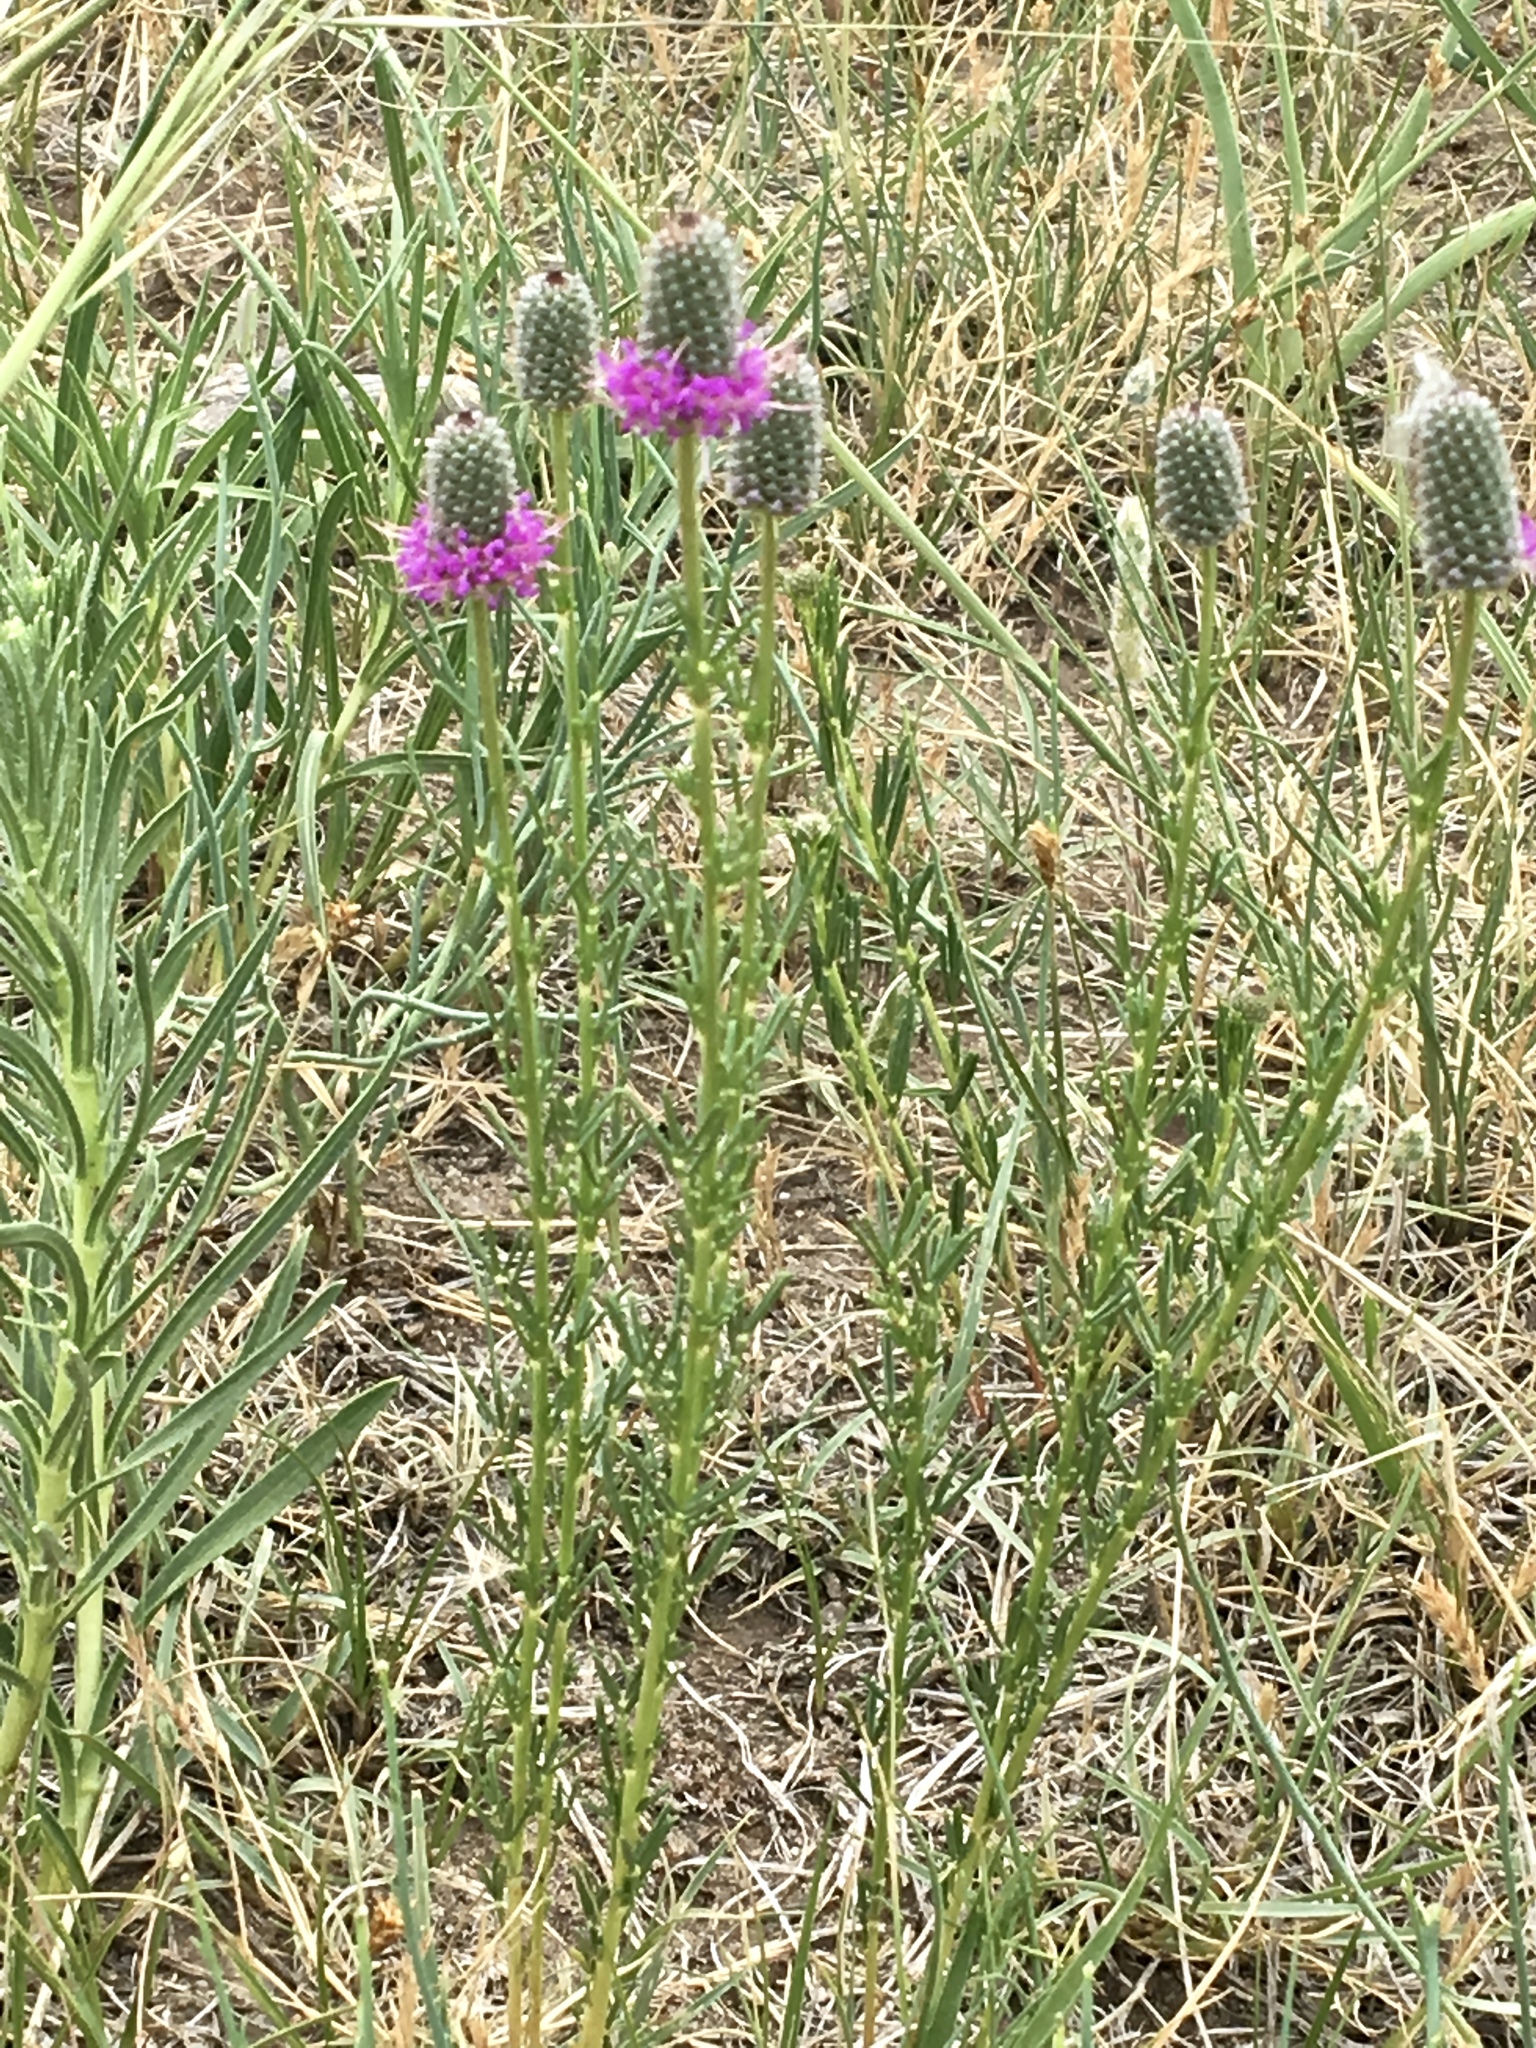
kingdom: Plantae
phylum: Tracheophyta
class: Magnoliopsida
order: Fabales
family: Fabaceae
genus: Dalea
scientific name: Dalea purpurea
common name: Purple prairie-clover
